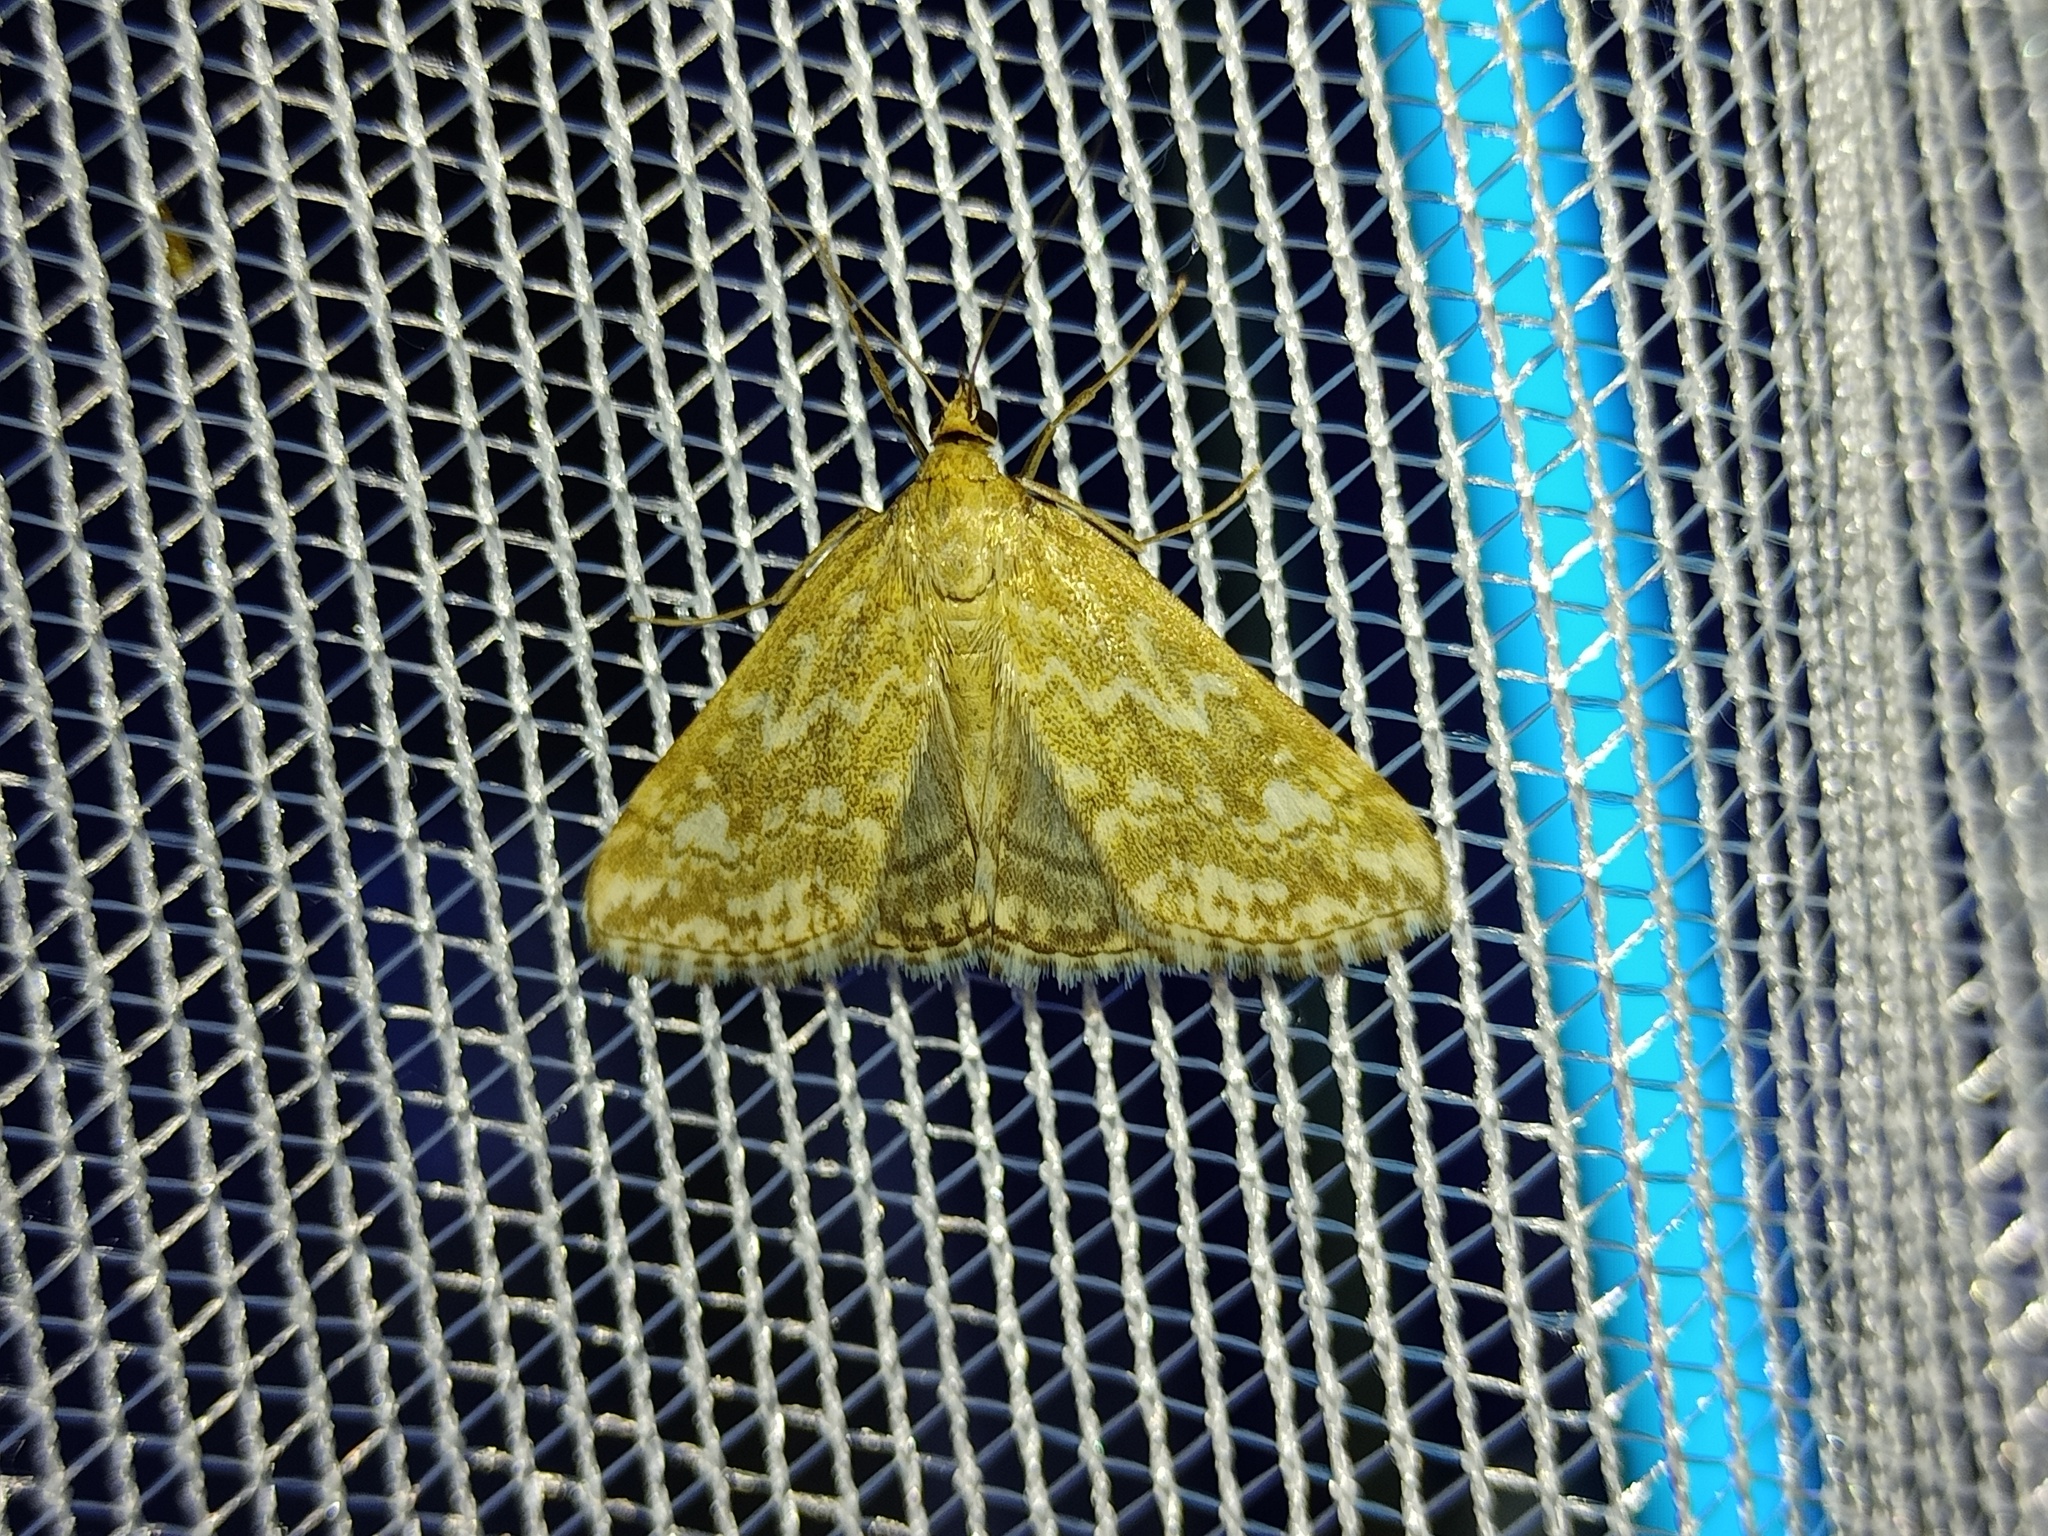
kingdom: Animalia
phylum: Arthropoda
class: Insecta
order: Lepidoptera
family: Crambidae
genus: Evergestis
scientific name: Evergestis frumentalis
